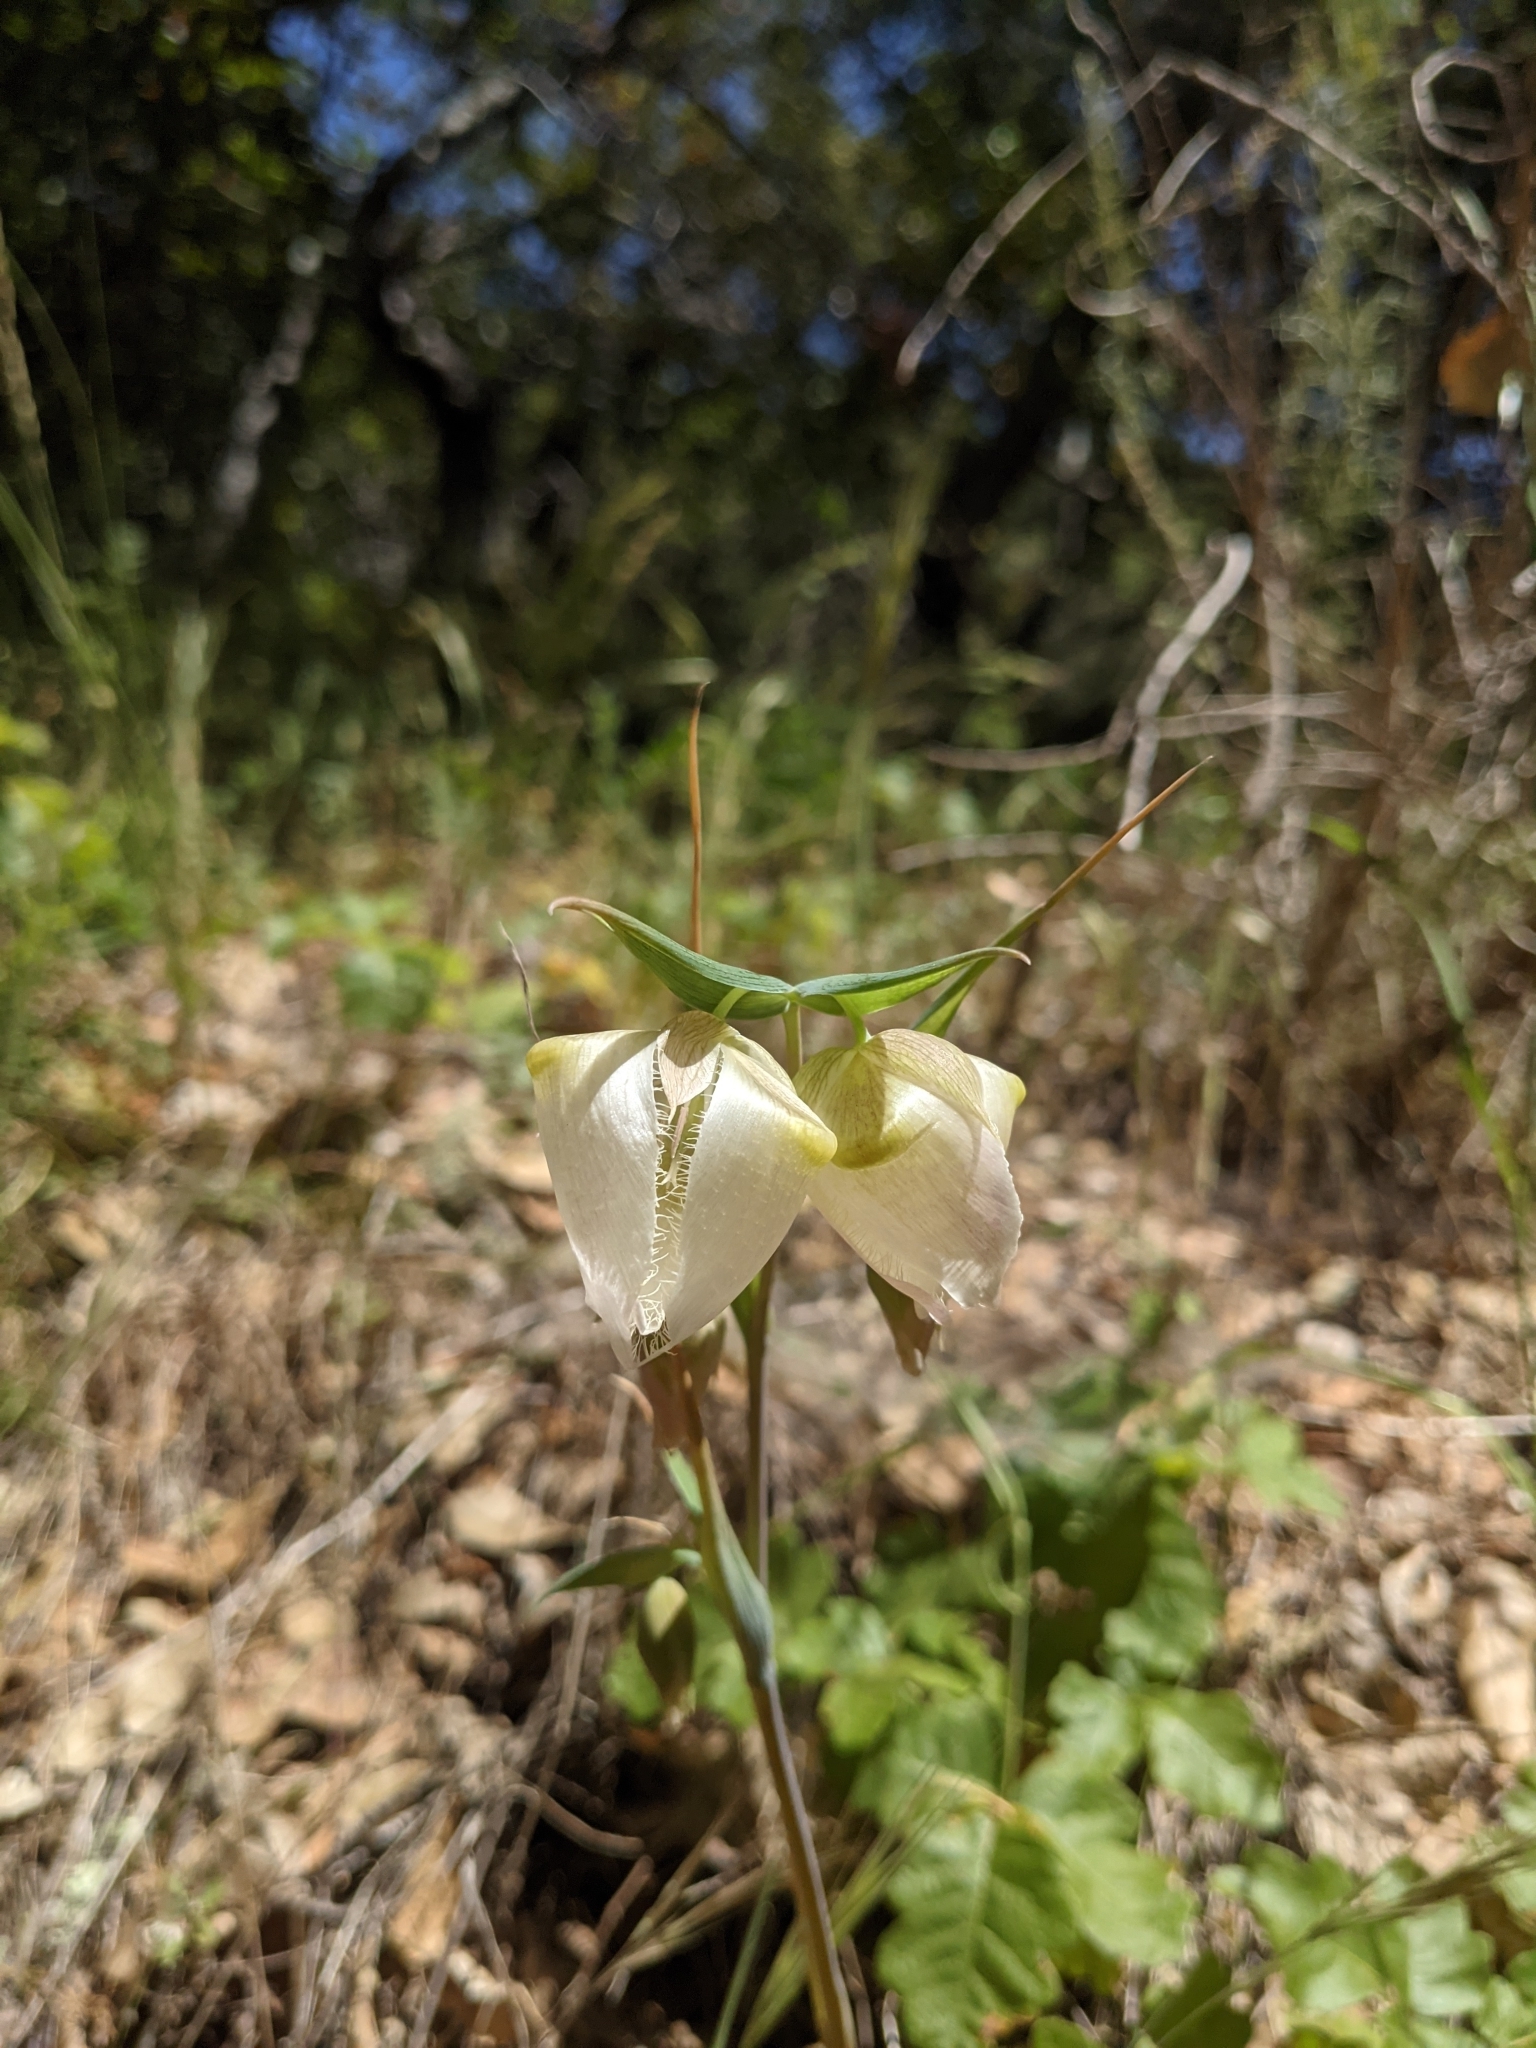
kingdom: Plantae
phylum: Tracheophyta
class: Liliopsida
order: Liliales
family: Liliaceae
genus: Calochortus
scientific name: Calochortus albus
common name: Fairy-lantern
